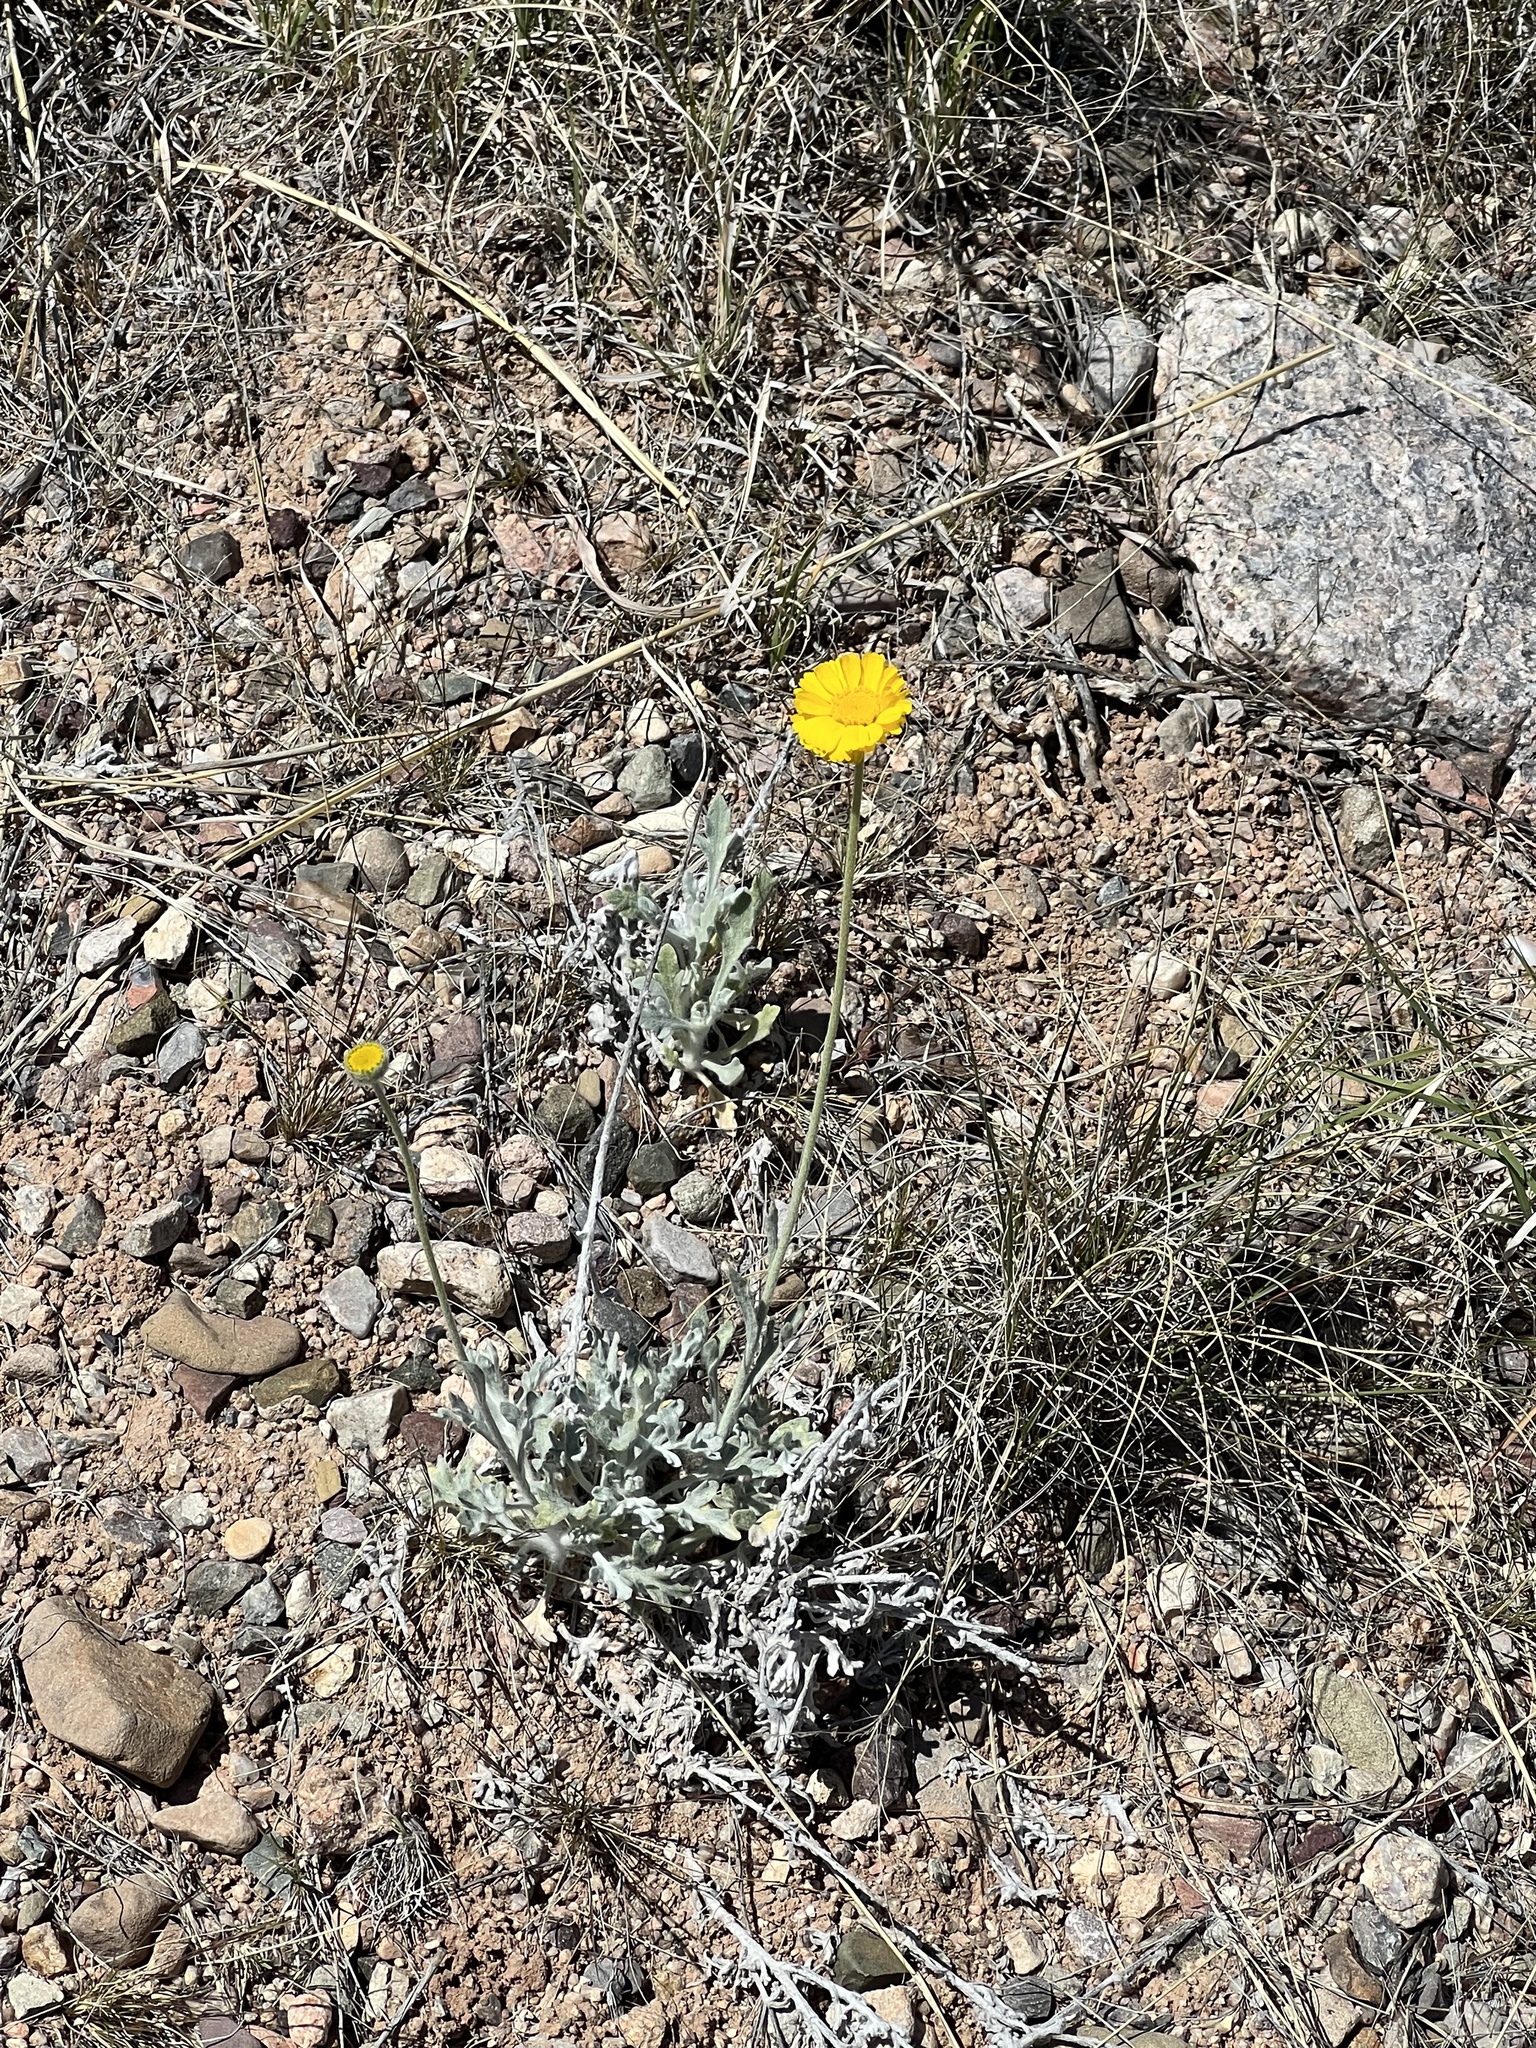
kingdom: Plantae
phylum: Tracheophyta
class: Magnoliopsida
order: Asterales
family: Asteraceae
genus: Baileya
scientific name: Baileya multiradiata
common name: Desert-marigold
